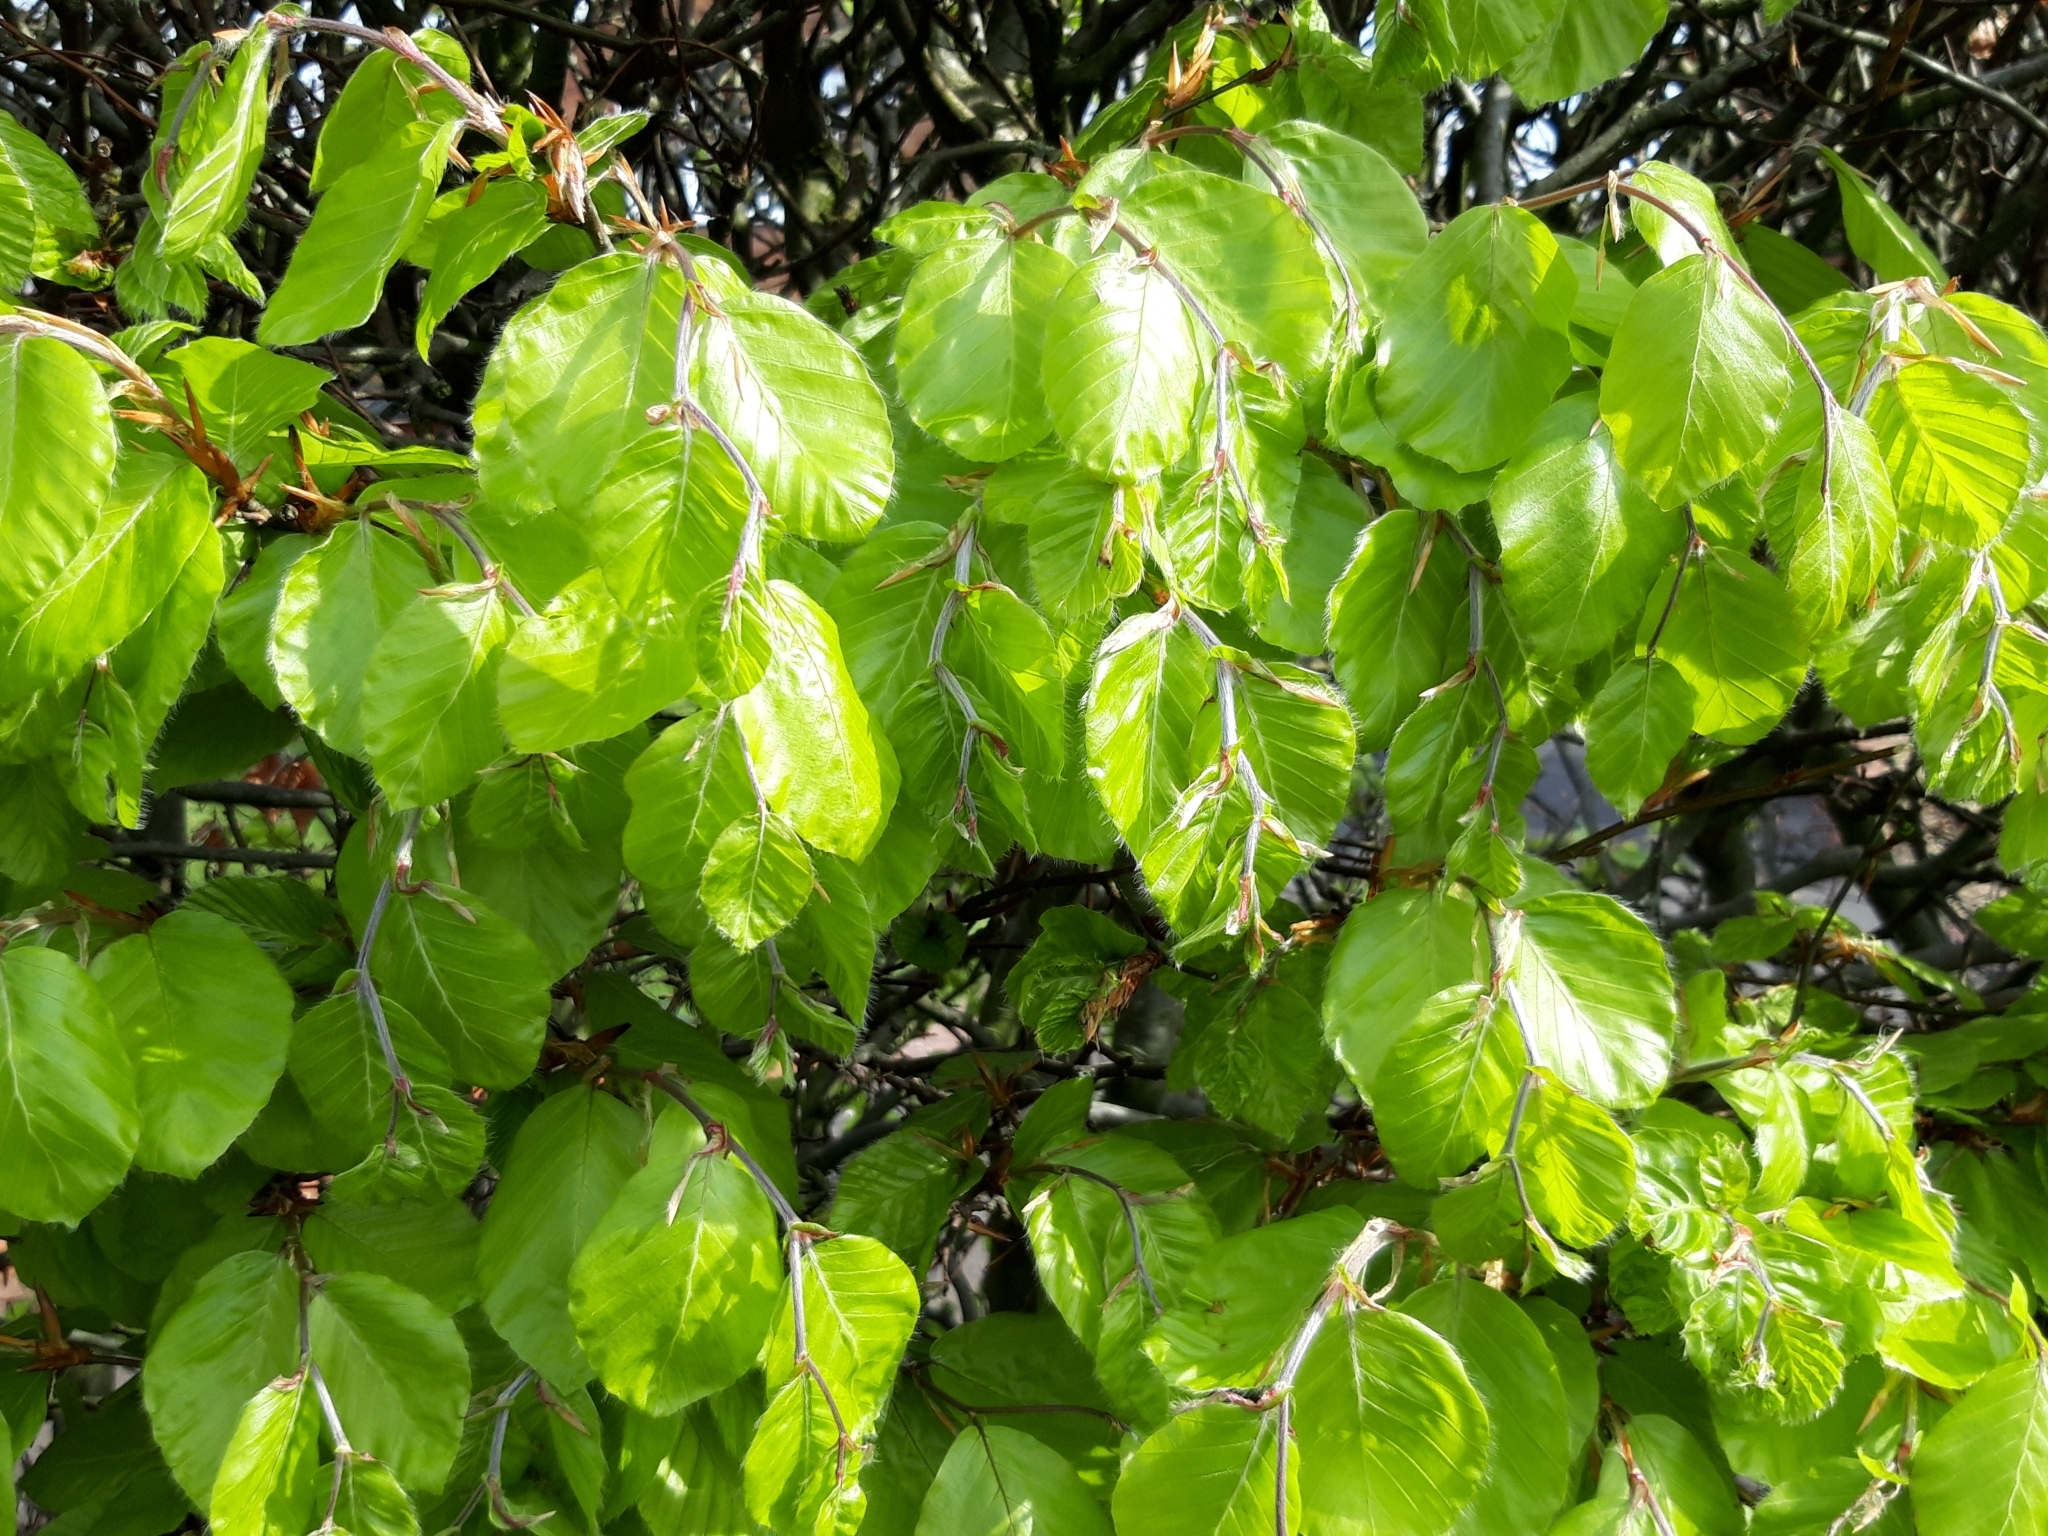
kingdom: Plantae
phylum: Tracheophyta
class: Magnoliopsida
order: Fagales
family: Fagaceae
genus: Fagus
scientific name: Fagus sylvatica
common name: Beech
